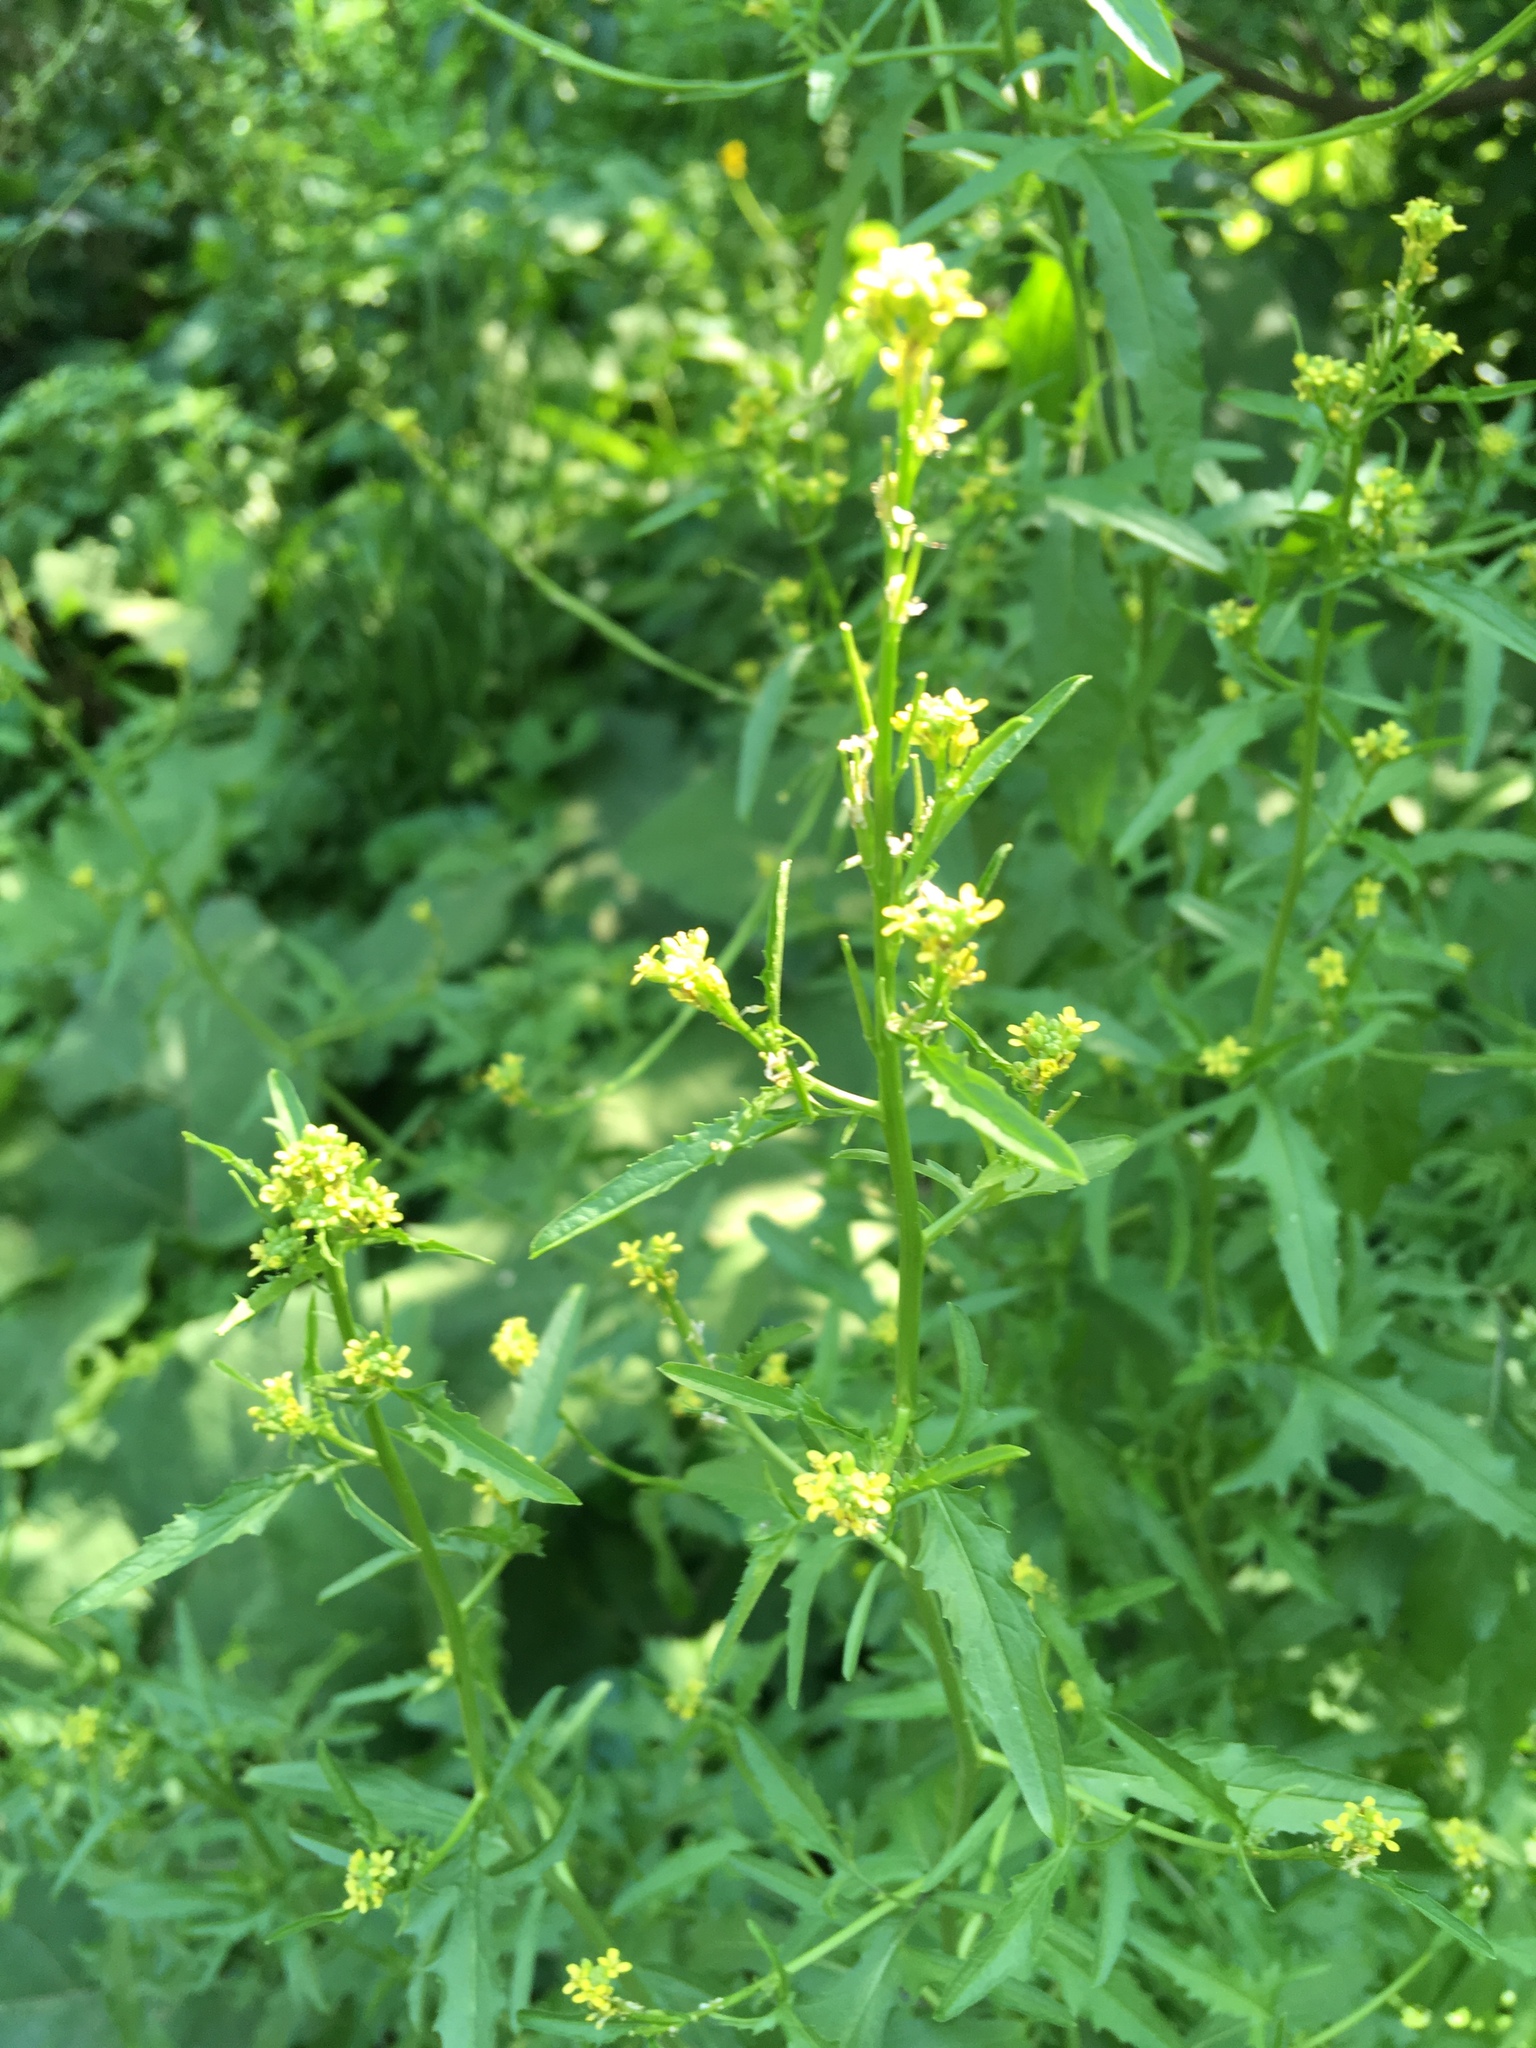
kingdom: Plantae
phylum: Tracheophyta
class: Magnoliopsida
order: Brassicales
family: Brassicaceae
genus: Sisymbrium
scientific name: Sisymbrium officinale
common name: Hedge mustard
